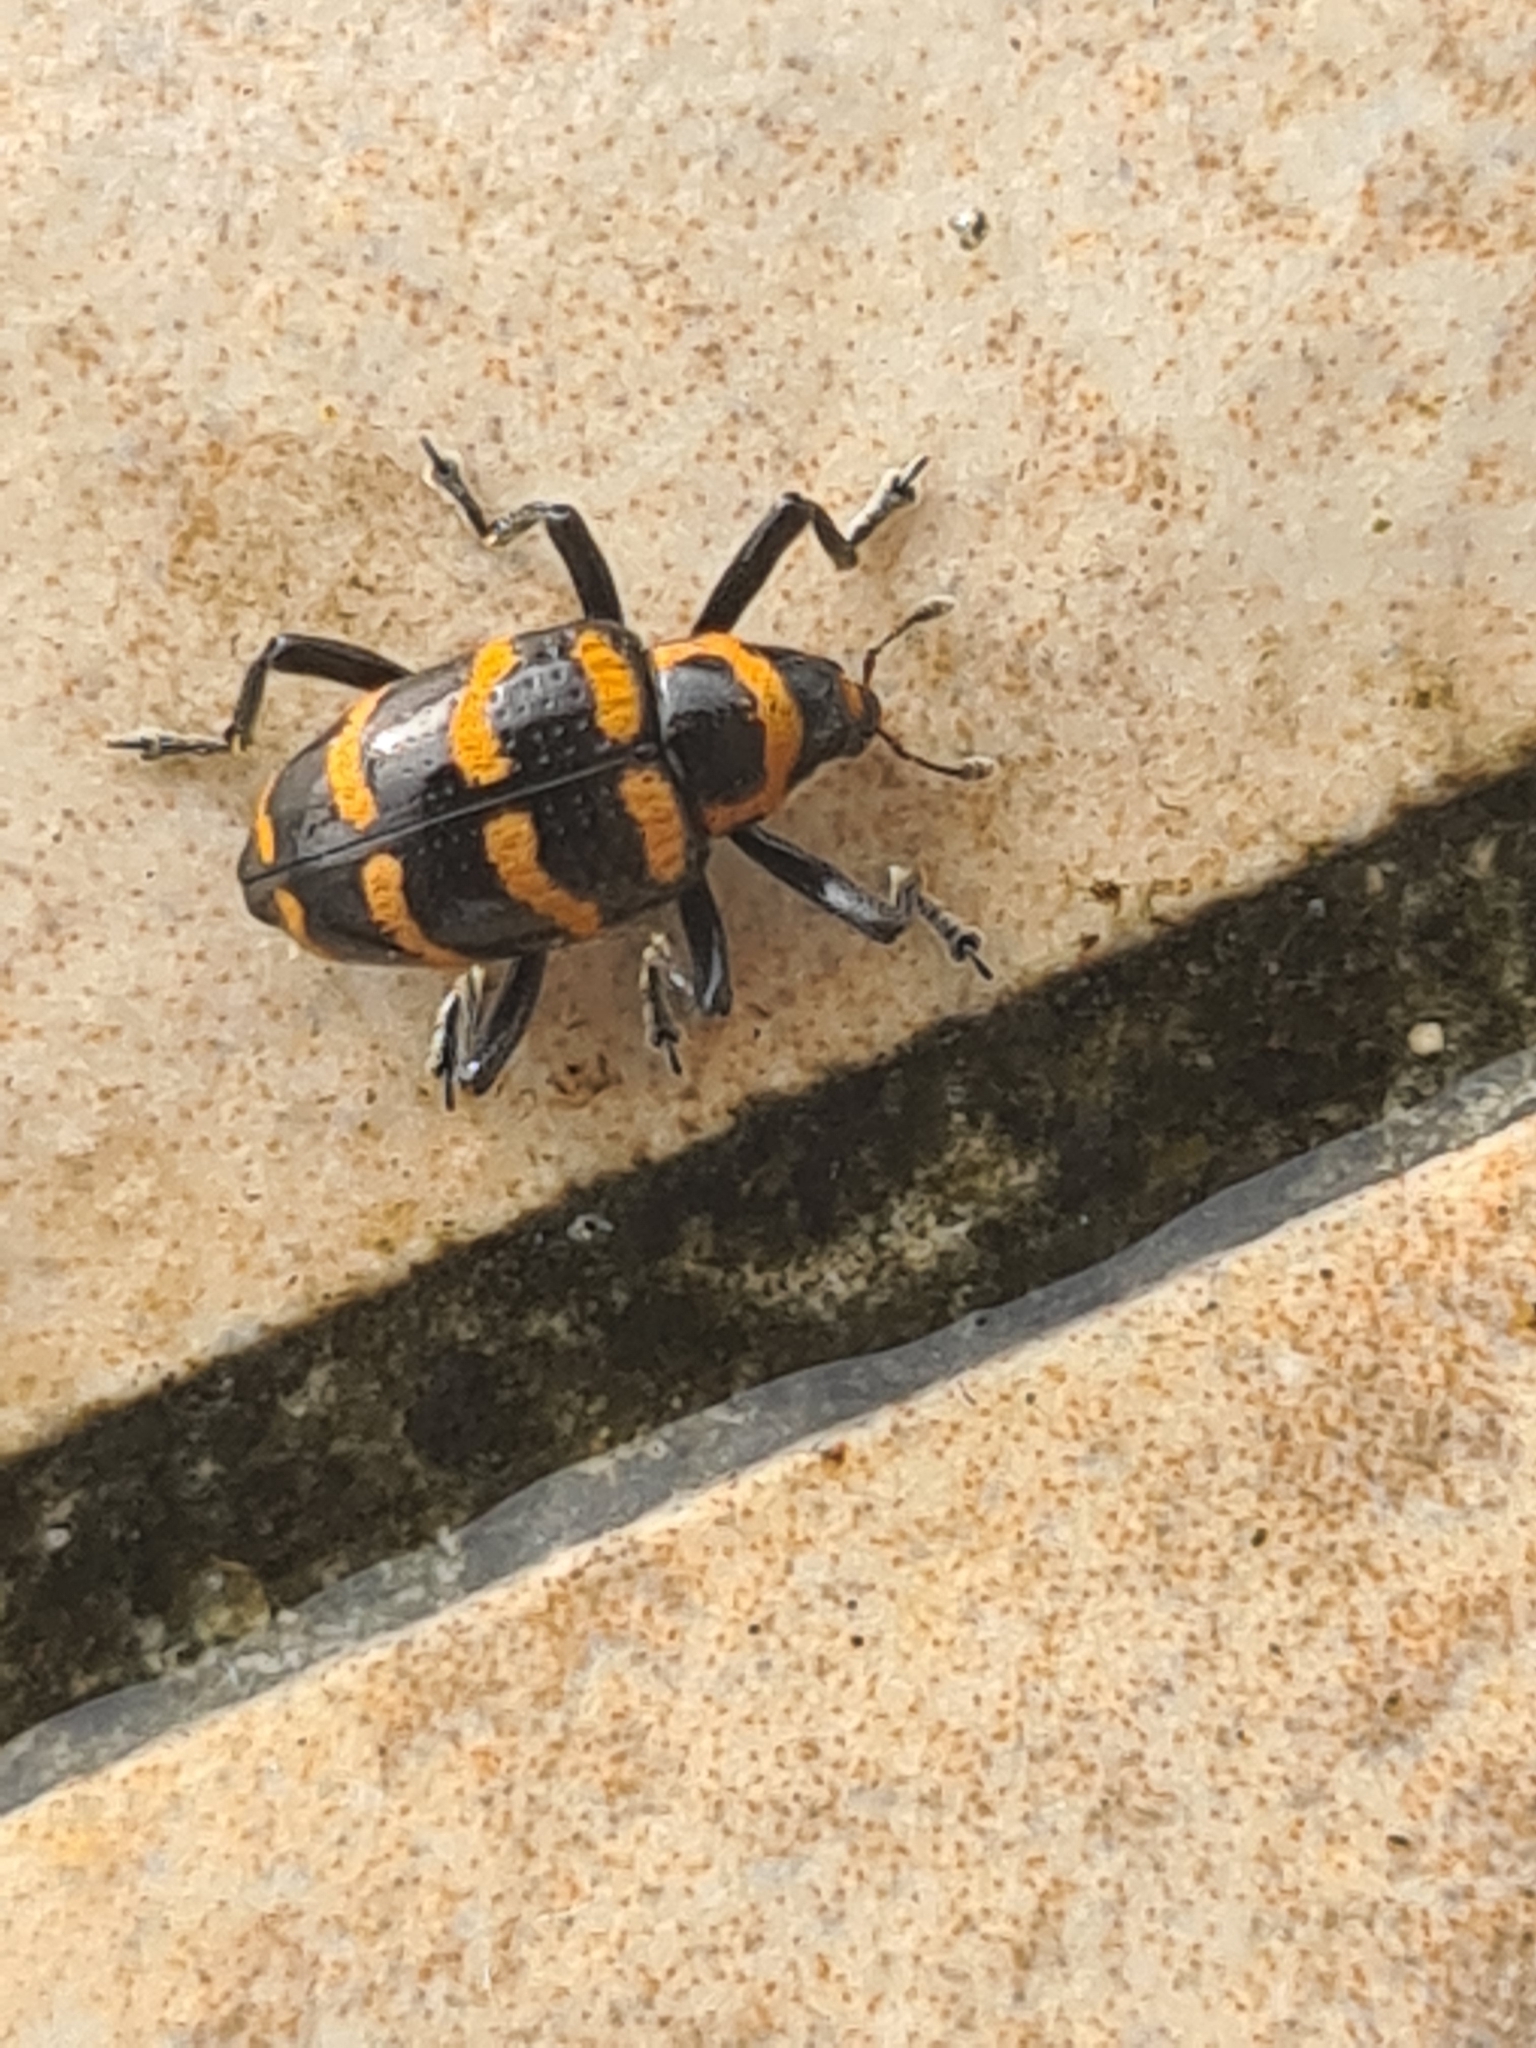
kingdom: Animalia
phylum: Arthropoda
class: Insecta
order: Coleoptera
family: Curculionidae
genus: Tyloderma
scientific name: Tyloderma fasciatus
